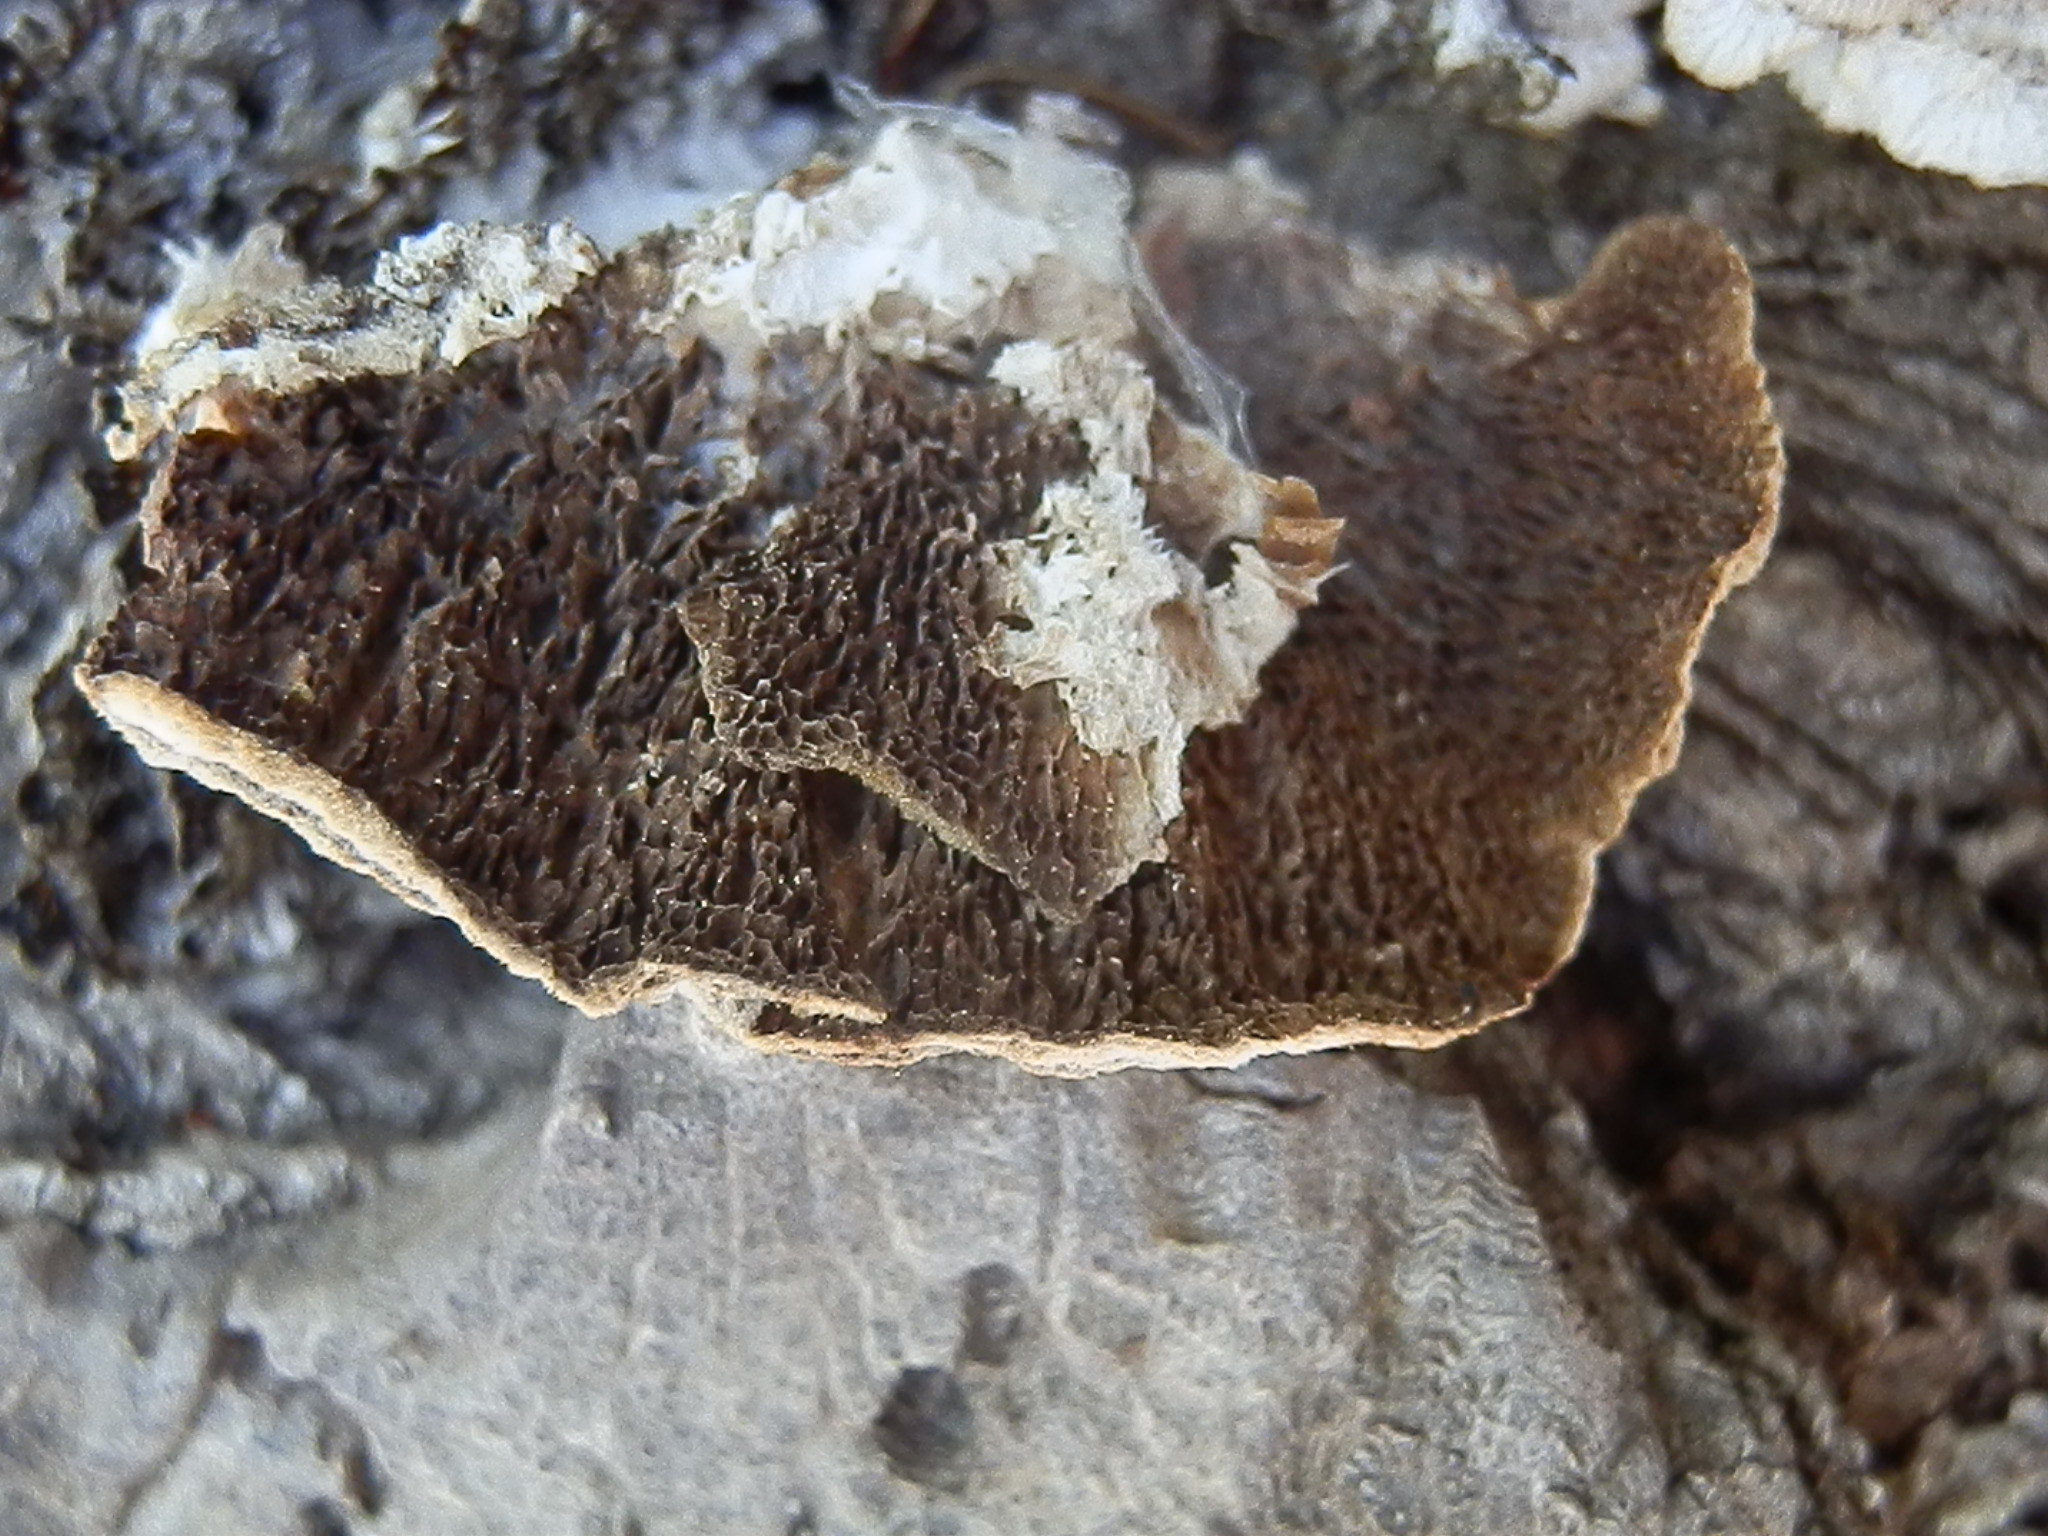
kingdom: Fungi
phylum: Basidiomycota
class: Agaricomycetes
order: Hymenochaetales
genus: Trichaptum
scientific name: Trichaptum abietinum
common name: Purplepore bracket
